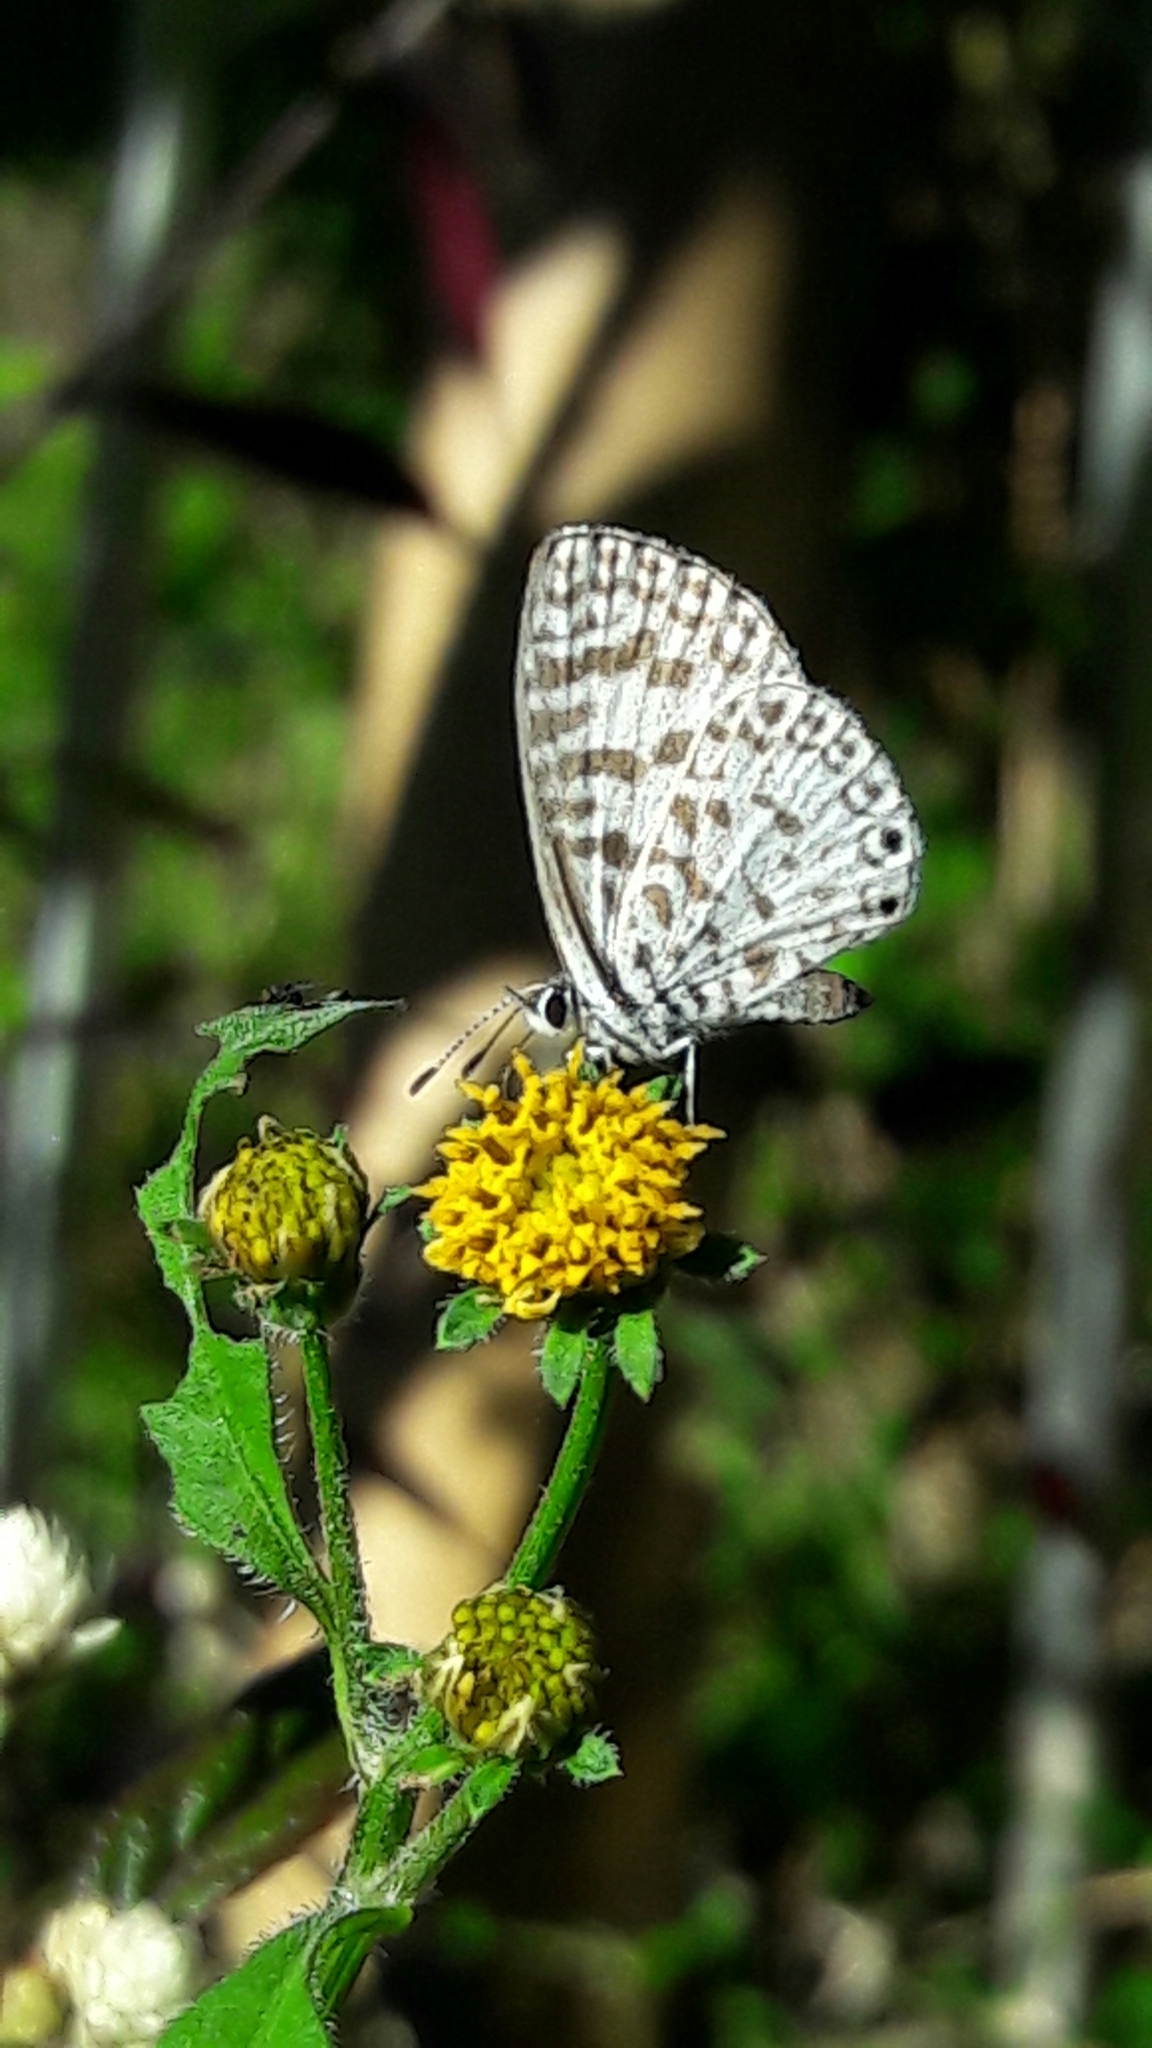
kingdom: Animalia
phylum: Arthropoda
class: Insecta
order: Lepidoptera
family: Lycaenidae
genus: Leptotes
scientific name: Leptotes cassius
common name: Cassius blue
